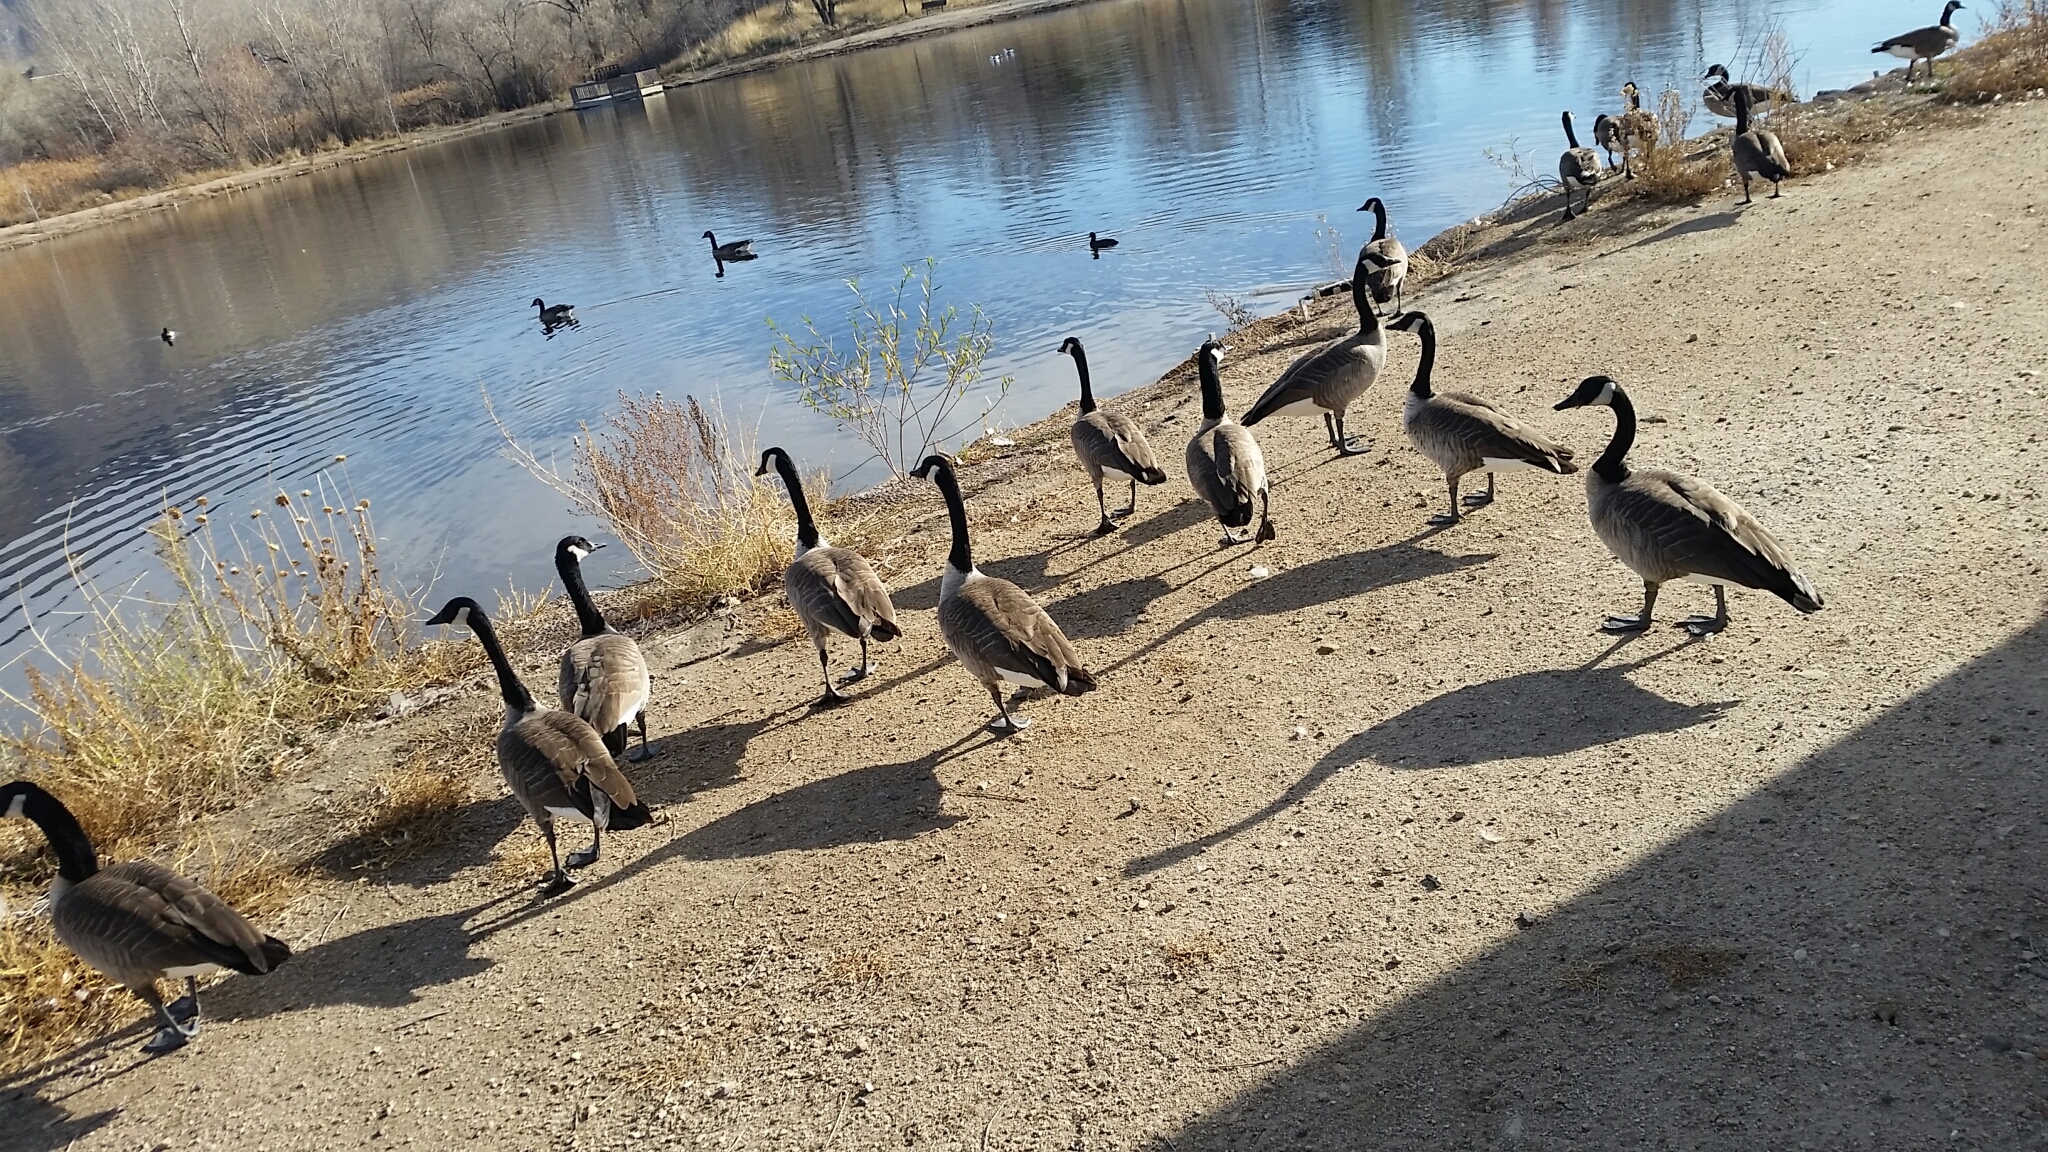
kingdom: Animalia
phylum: Chordata
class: Aves
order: Anseriformes
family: Anatidae
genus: Branta
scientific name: Branta canadensis
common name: Canada goose
